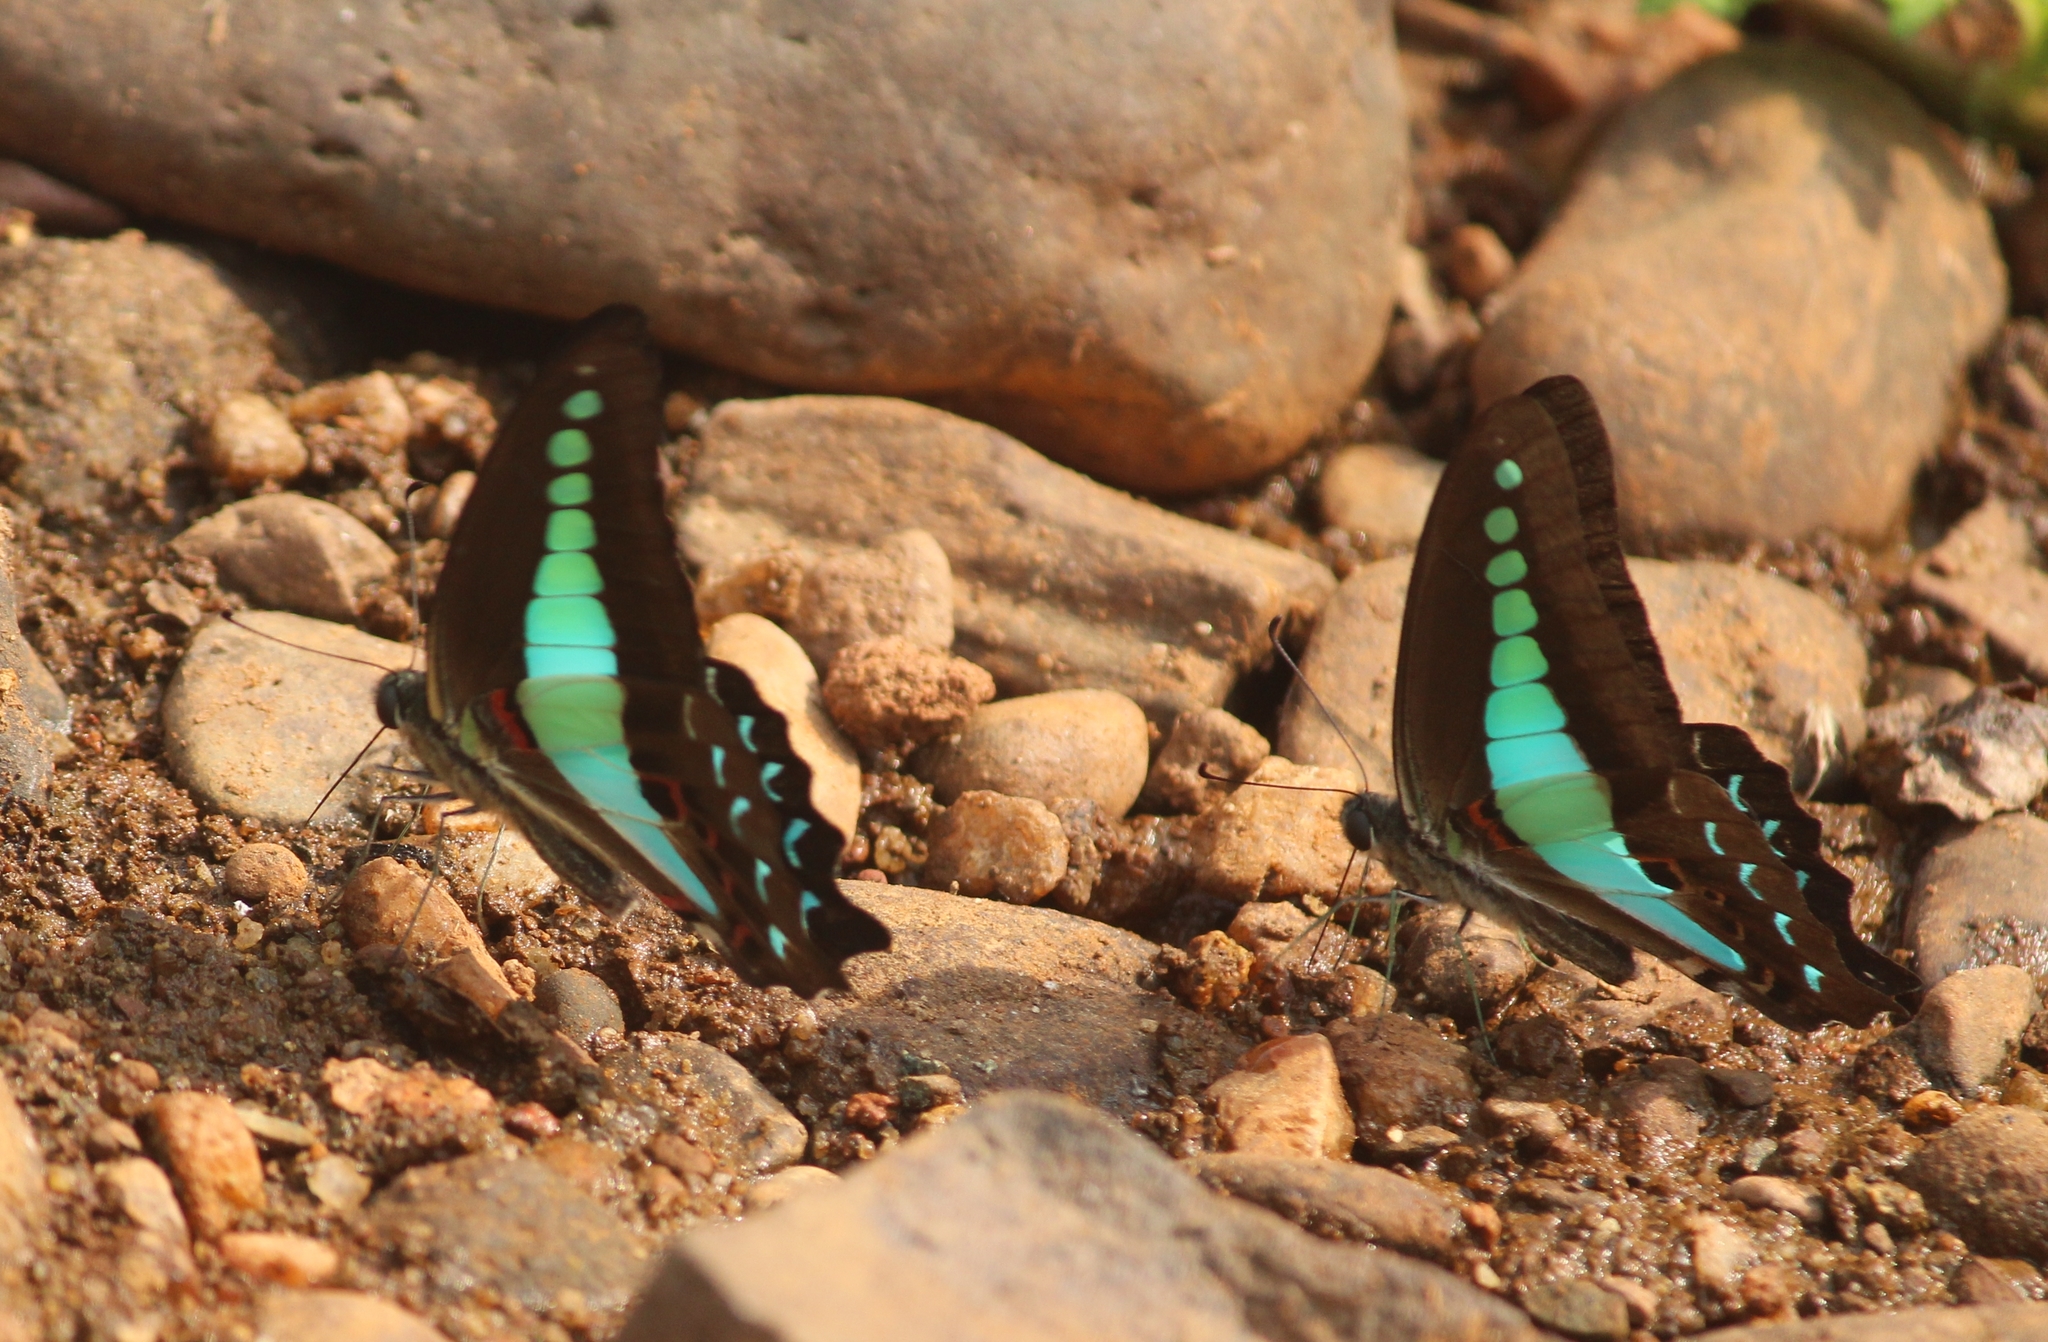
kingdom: Animalia
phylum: Arthropoda
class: Insecta
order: Lepidoptera
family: Papilionidae
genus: Graphium
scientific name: Graphium
